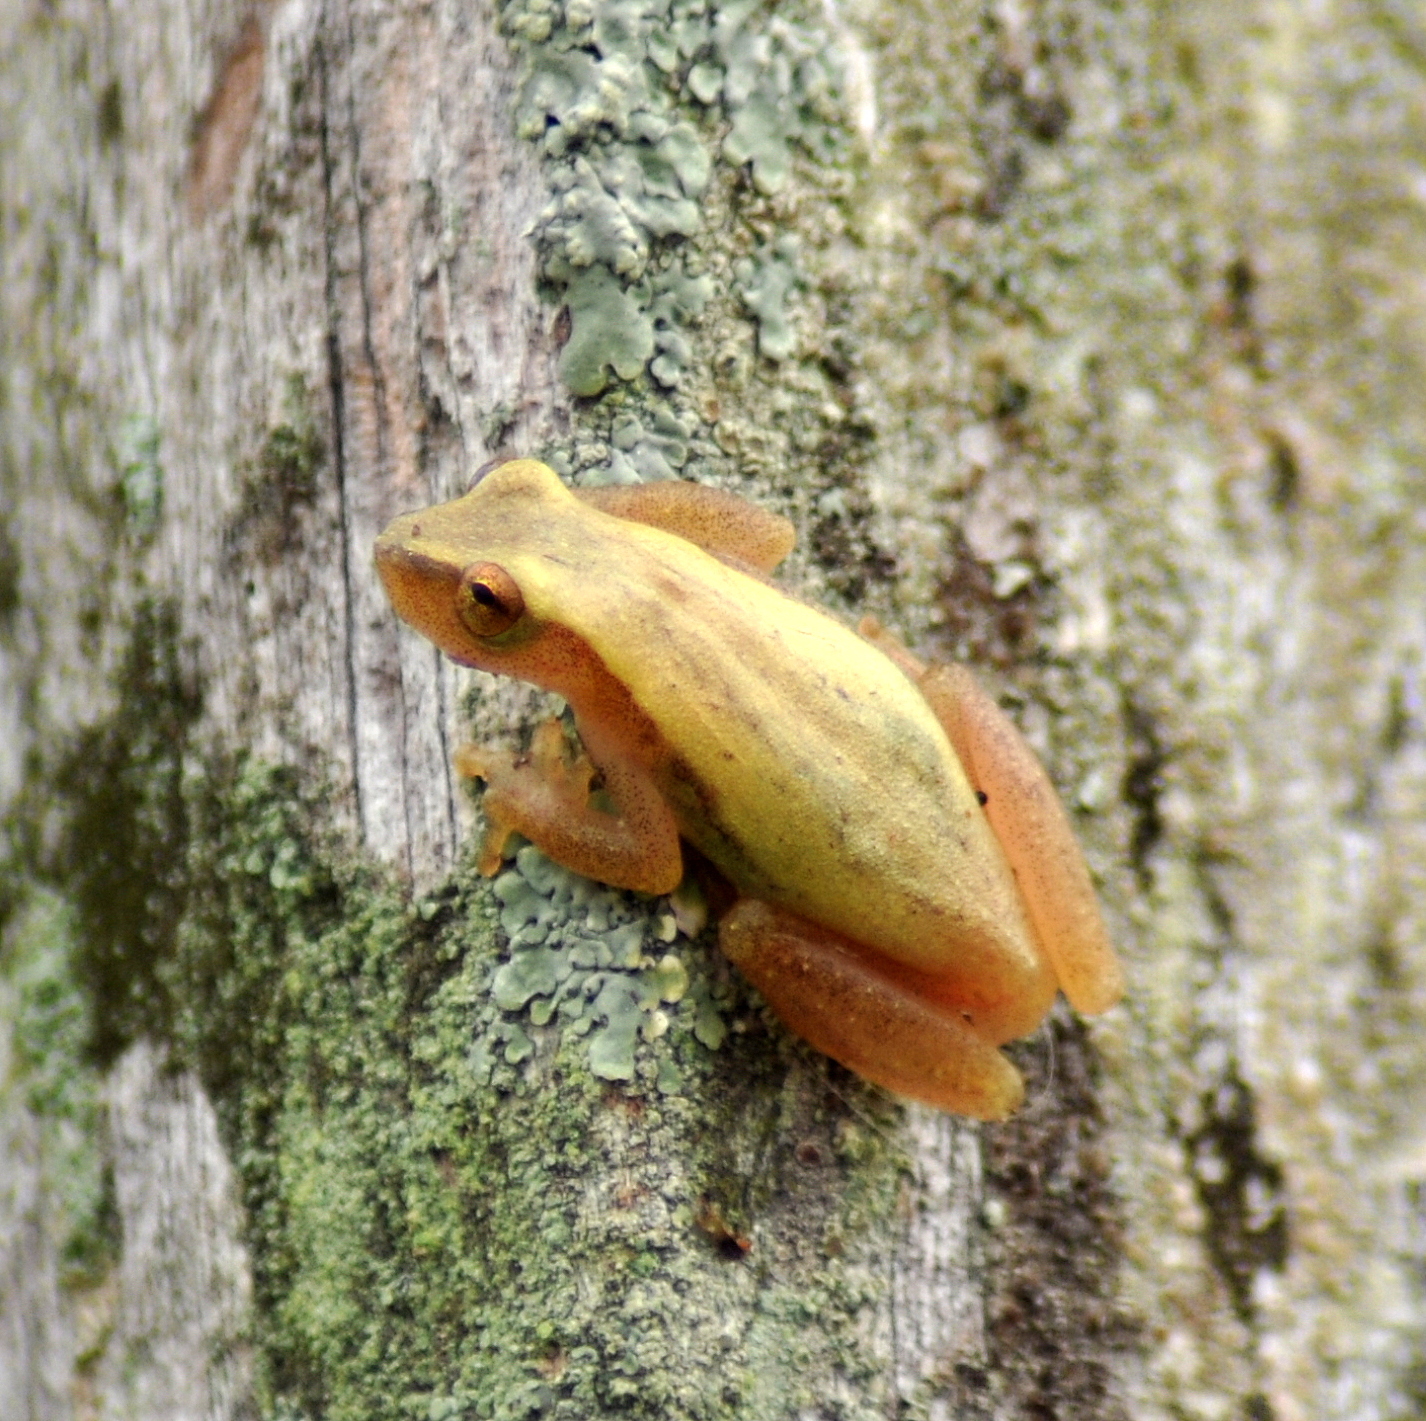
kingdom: Animalia
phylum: Chordata
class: Amphibia
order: Anura
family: Hylidae
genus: Dendropsophus
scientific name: Dendropsophus sanborni
